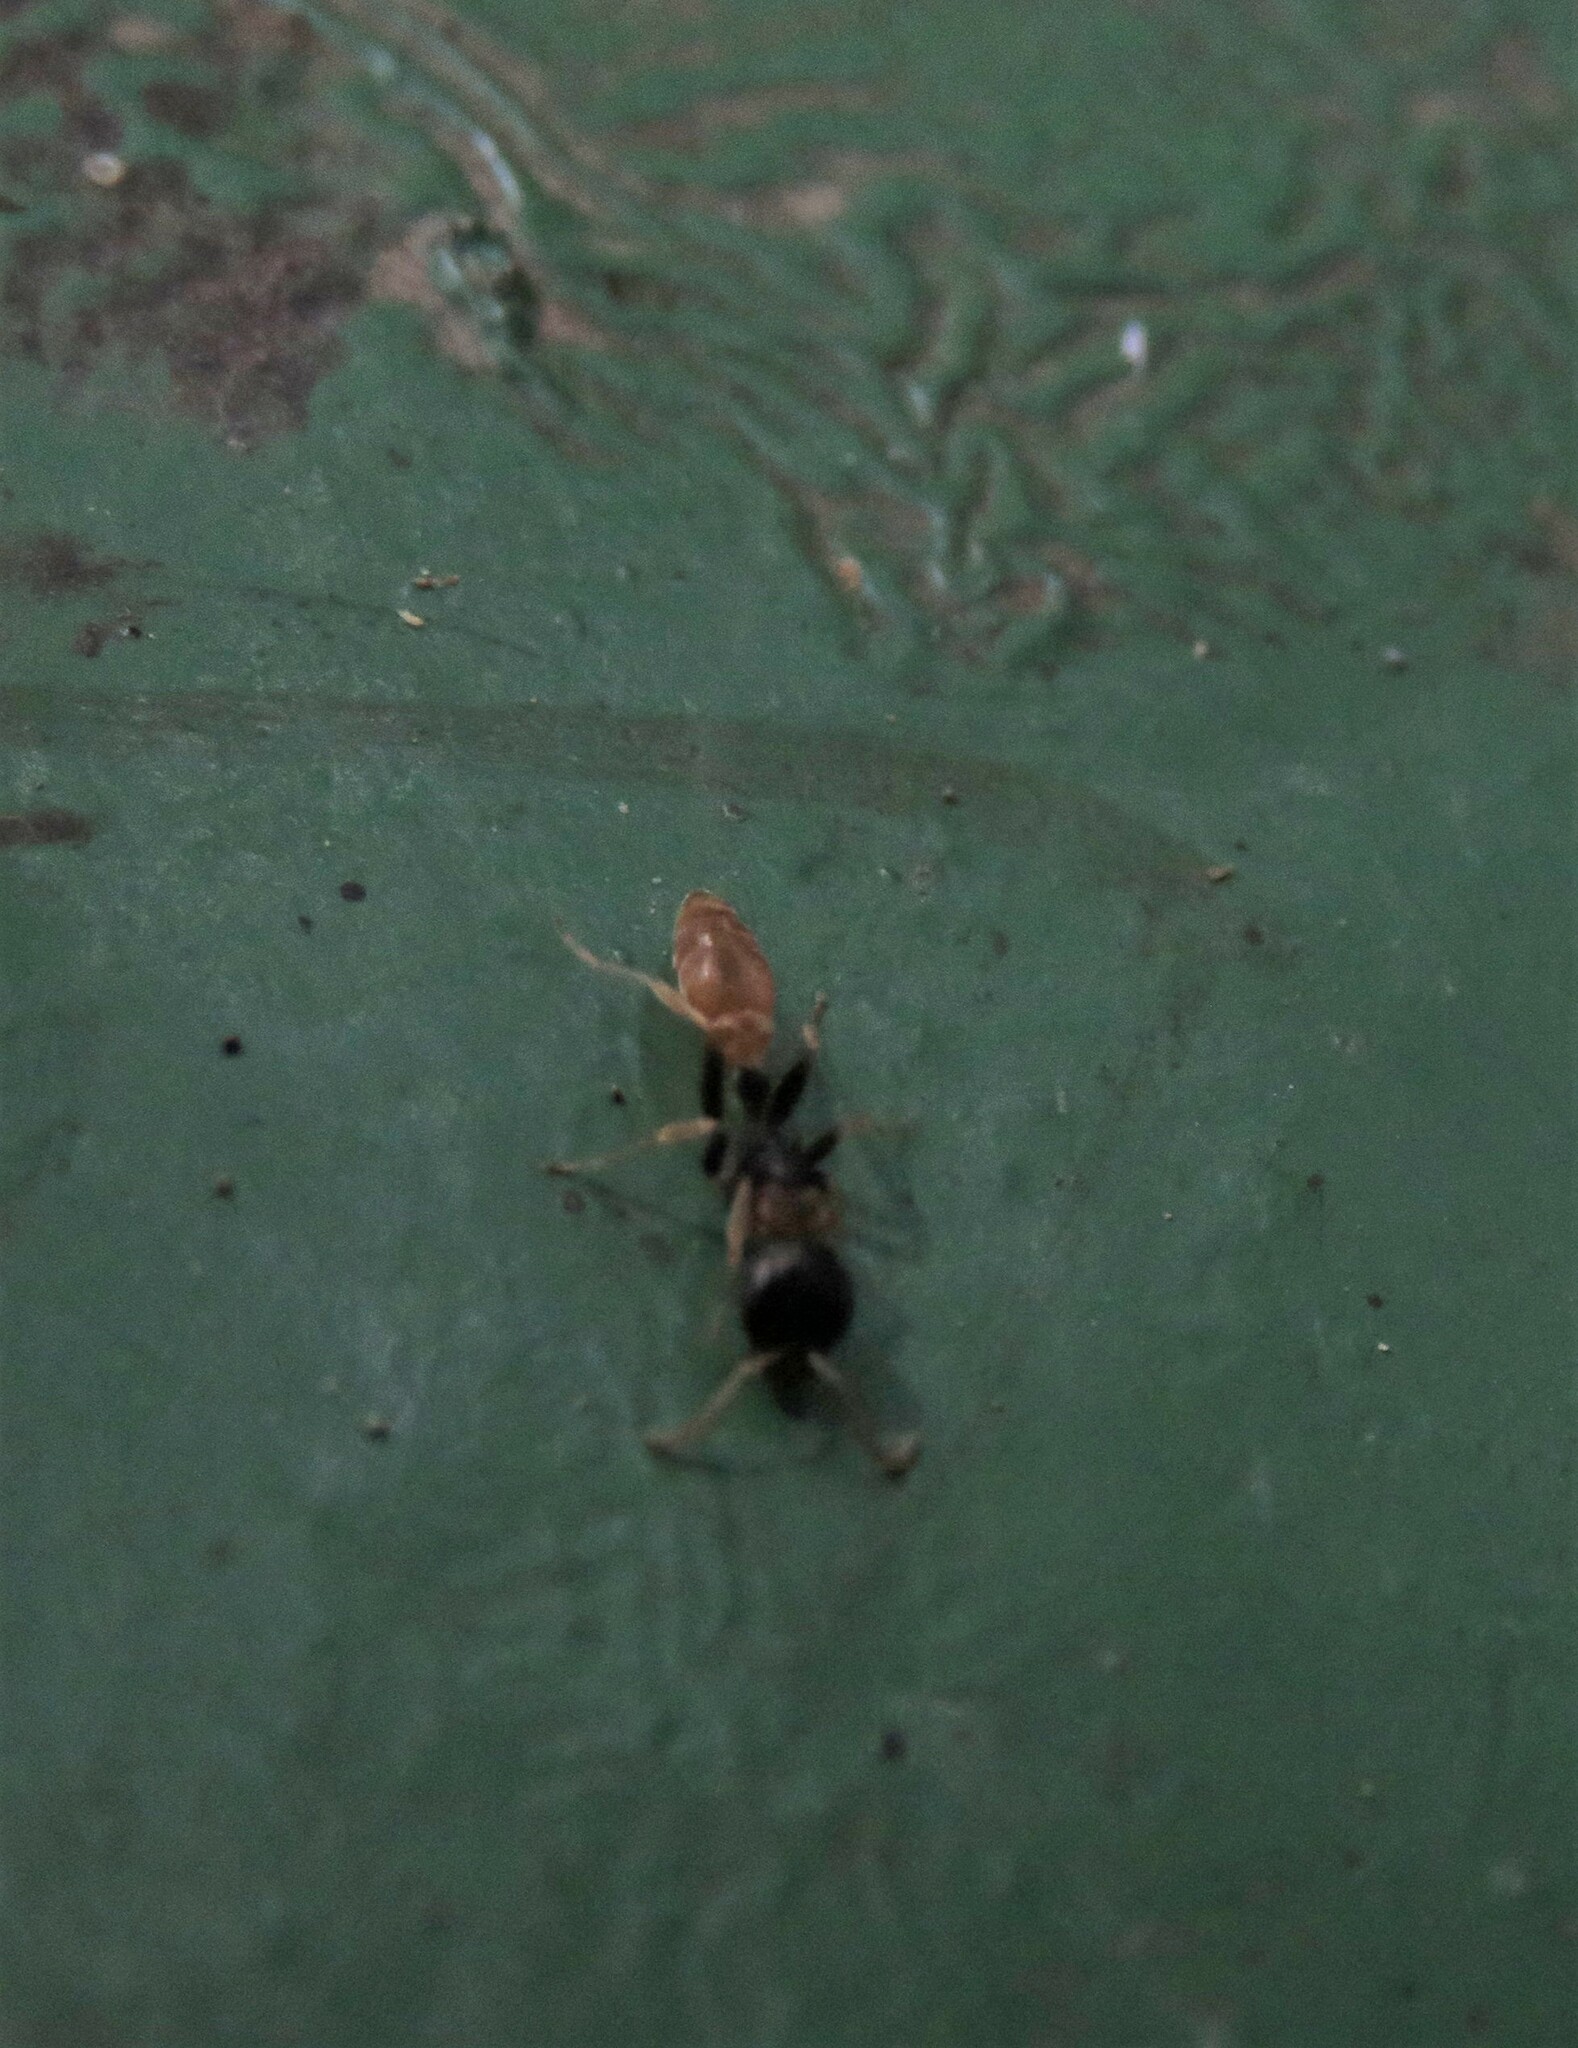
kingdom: Animalia
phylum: Arthropoda
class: Insecta
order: Hymenoptera
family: Formicidae
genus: Pseudomyrmex
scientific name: Pseudomyrmex boopis
